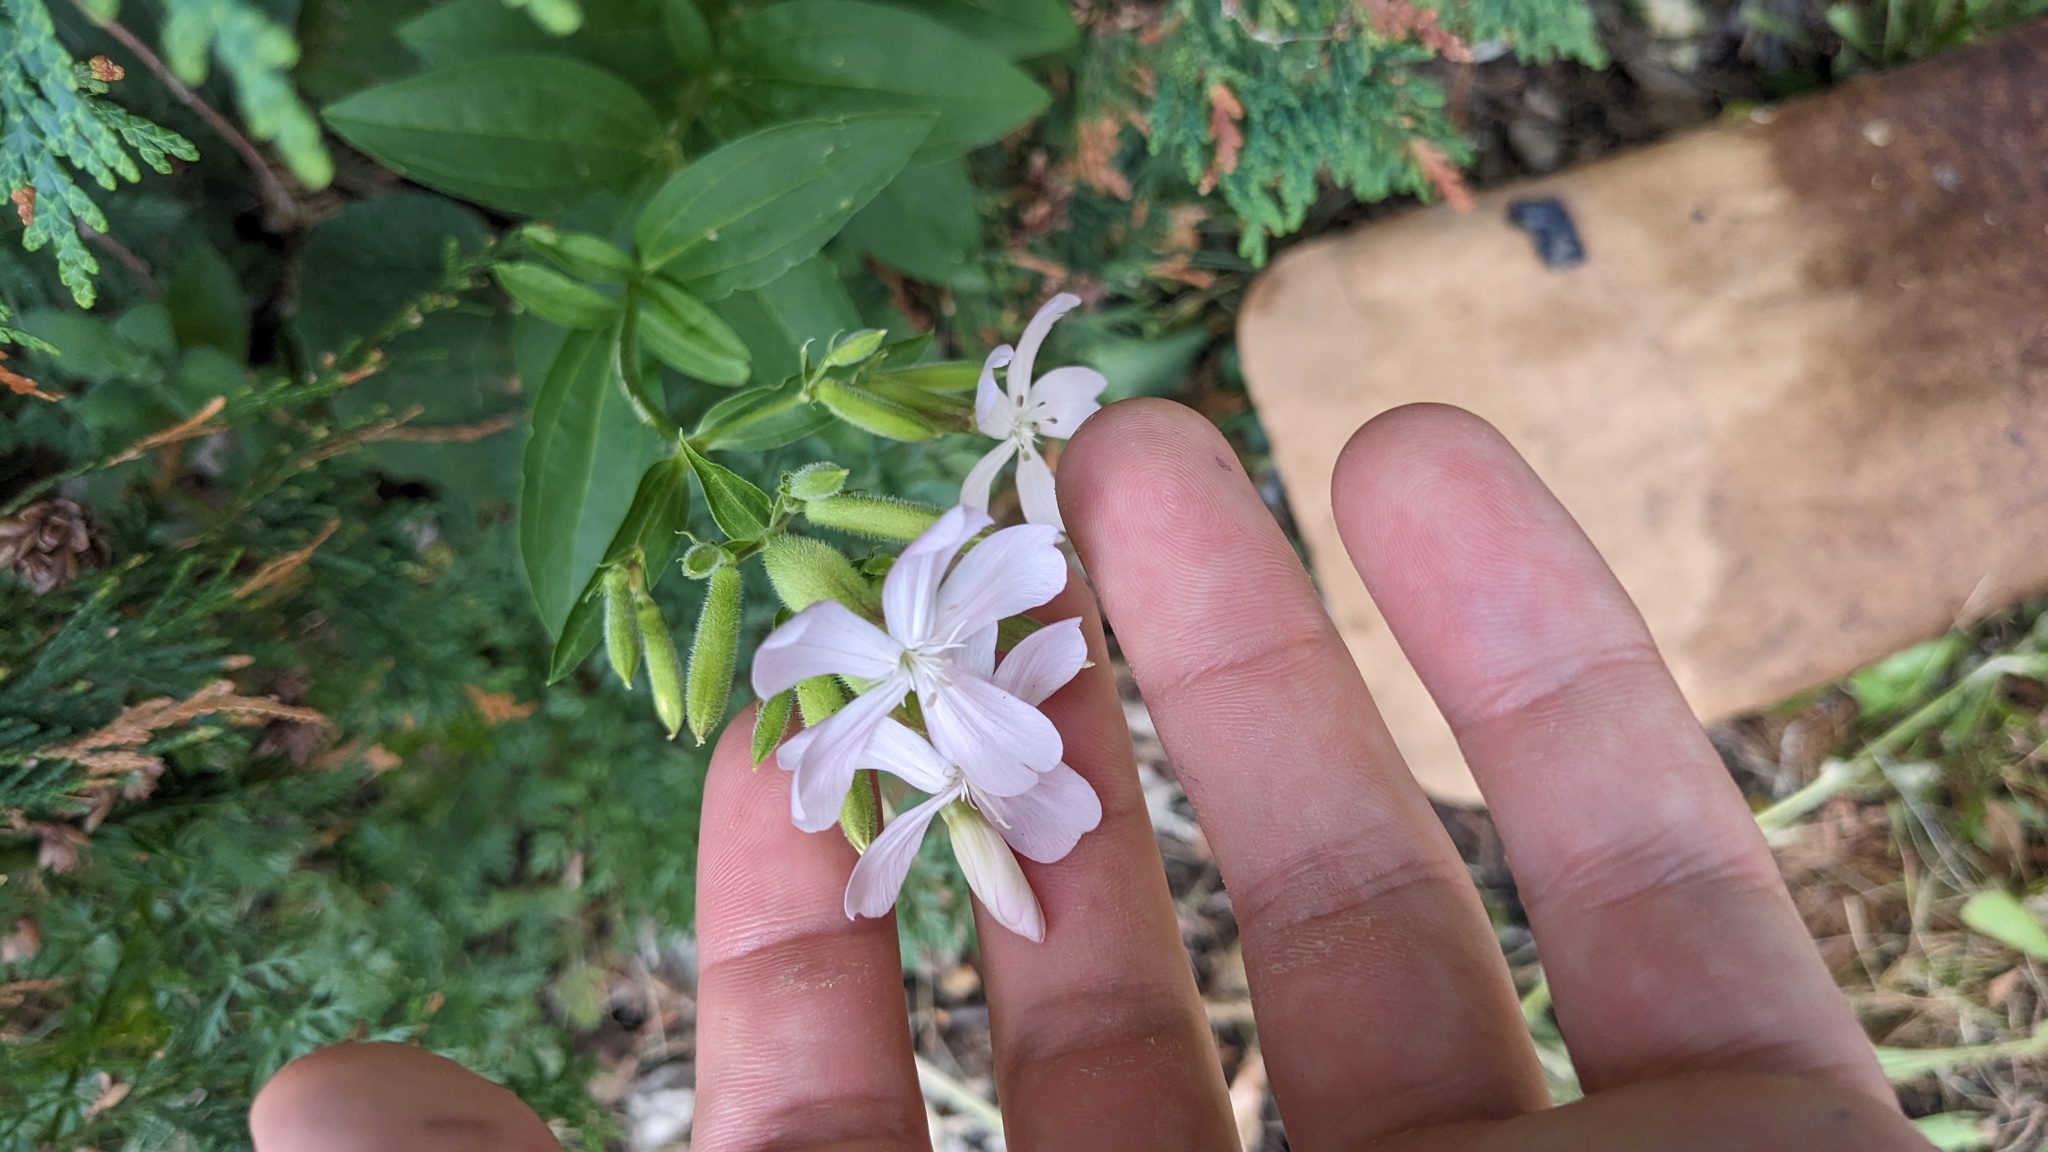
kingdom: Plantae
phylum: Tracheophyta
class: Magnoliopsida
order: Caryophyllales
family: Caryophyllaceae
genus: Saponaria
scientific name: Saponaria officinalis
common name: Soapwort
